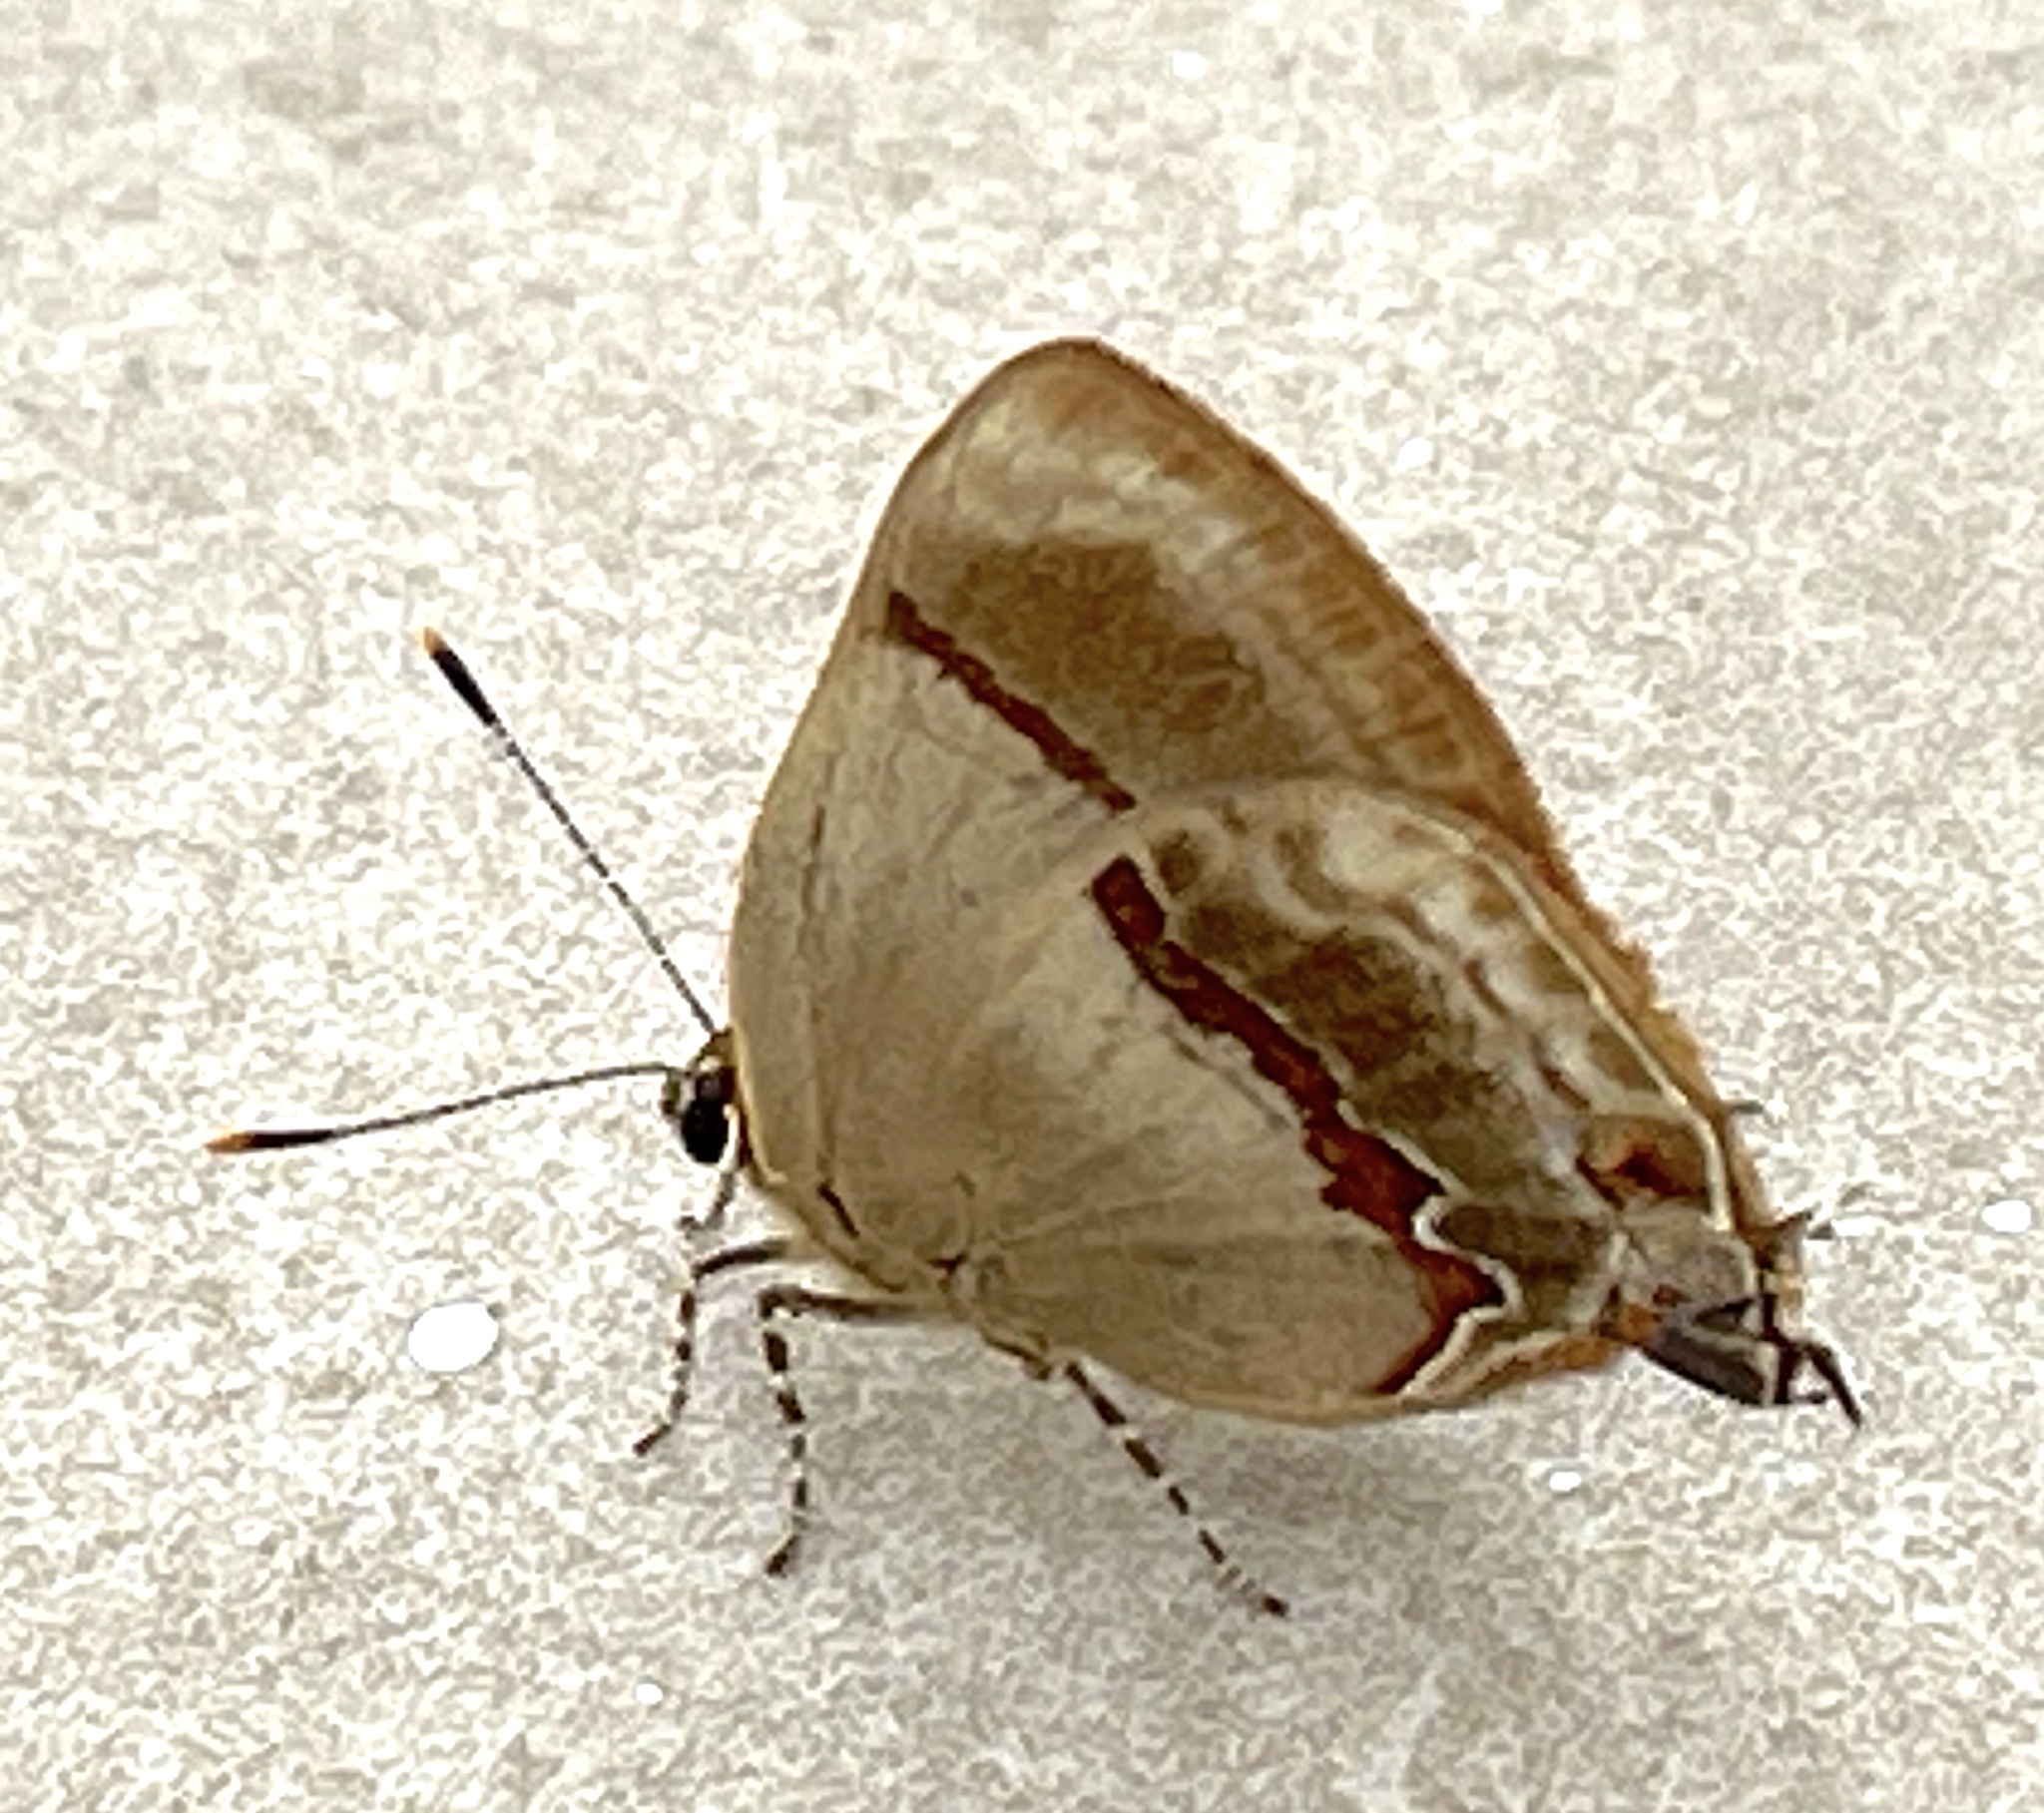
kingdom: Animalia
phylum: Arthropoda
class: Insecta
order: Lepidoptera
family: Lycaenidae
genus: Lamprospilus
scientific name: Lamprospilus collucia
